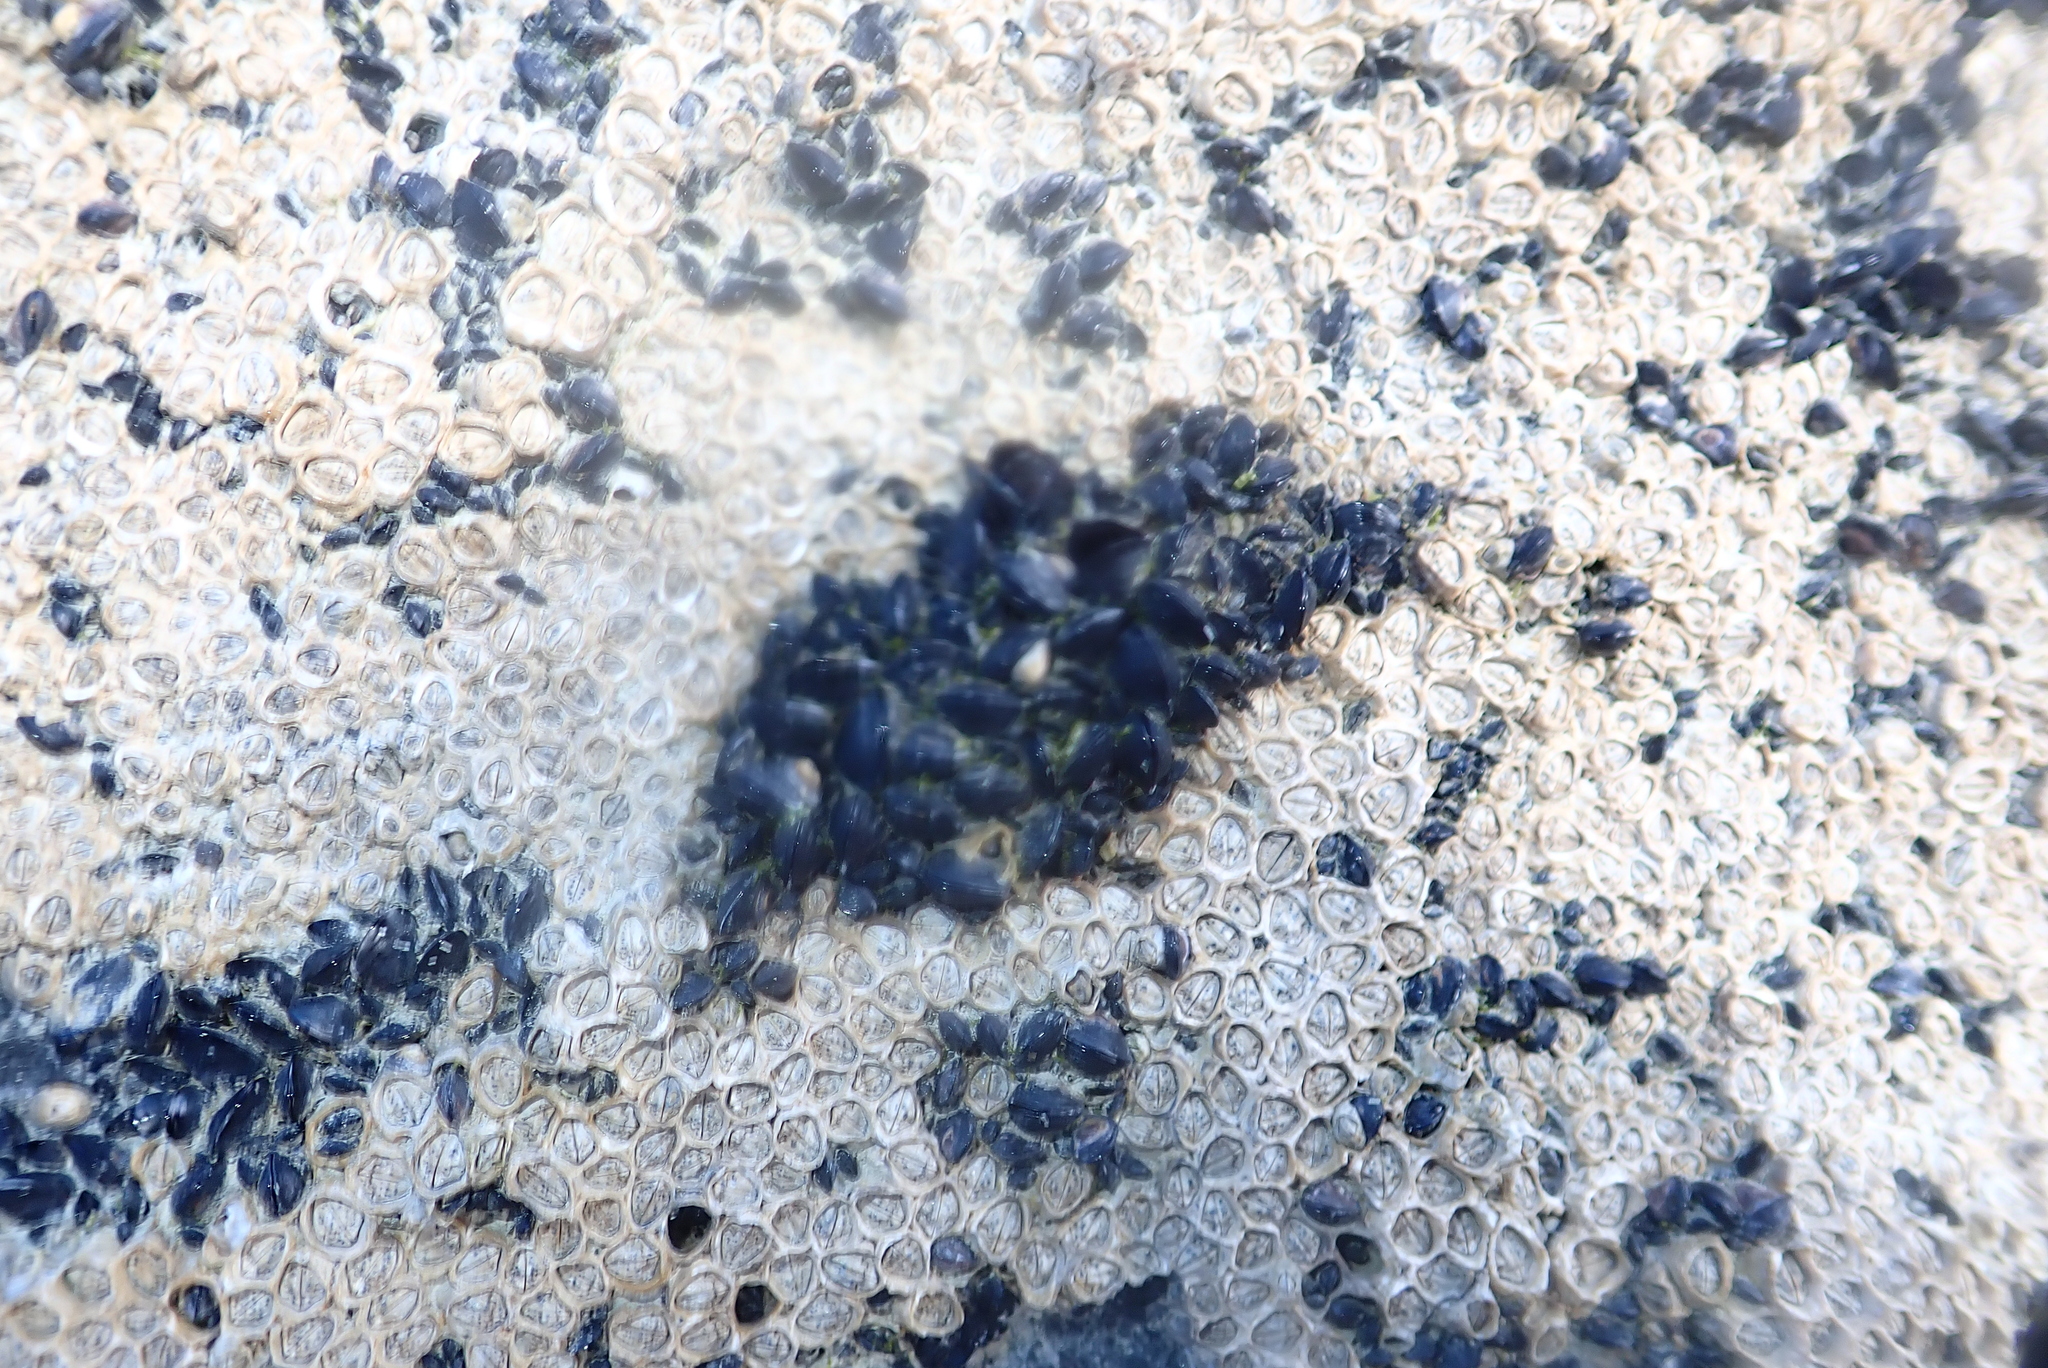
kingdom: Animalia
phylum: Mollusca
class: Bivalvia
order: Mytilida
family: Mytilidae
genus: Xenostrobus
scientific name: Xenostrobus neozelanicus
